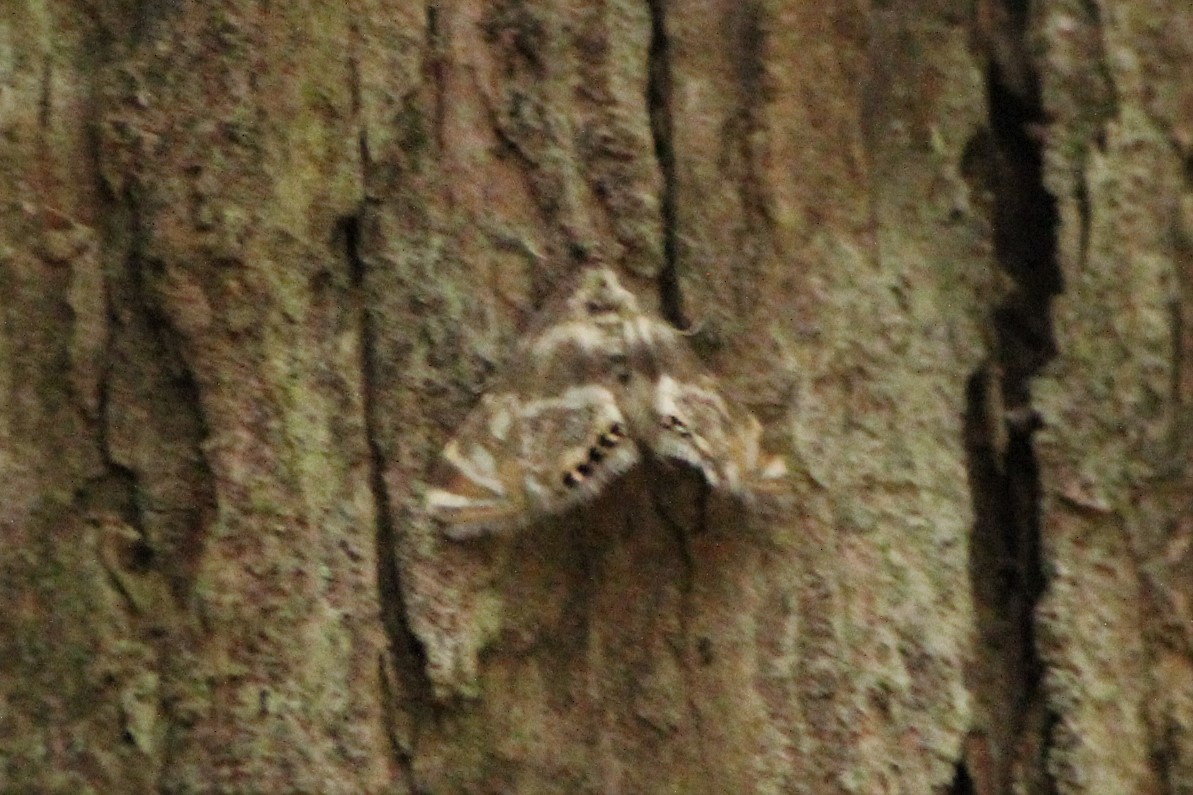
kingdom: Animalia
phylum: Arthropoda
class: Insecta
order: Lepidoptera
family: Crambidae
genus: Petrophila
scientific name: Petrophila canadensis
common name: Canadian petrophila
